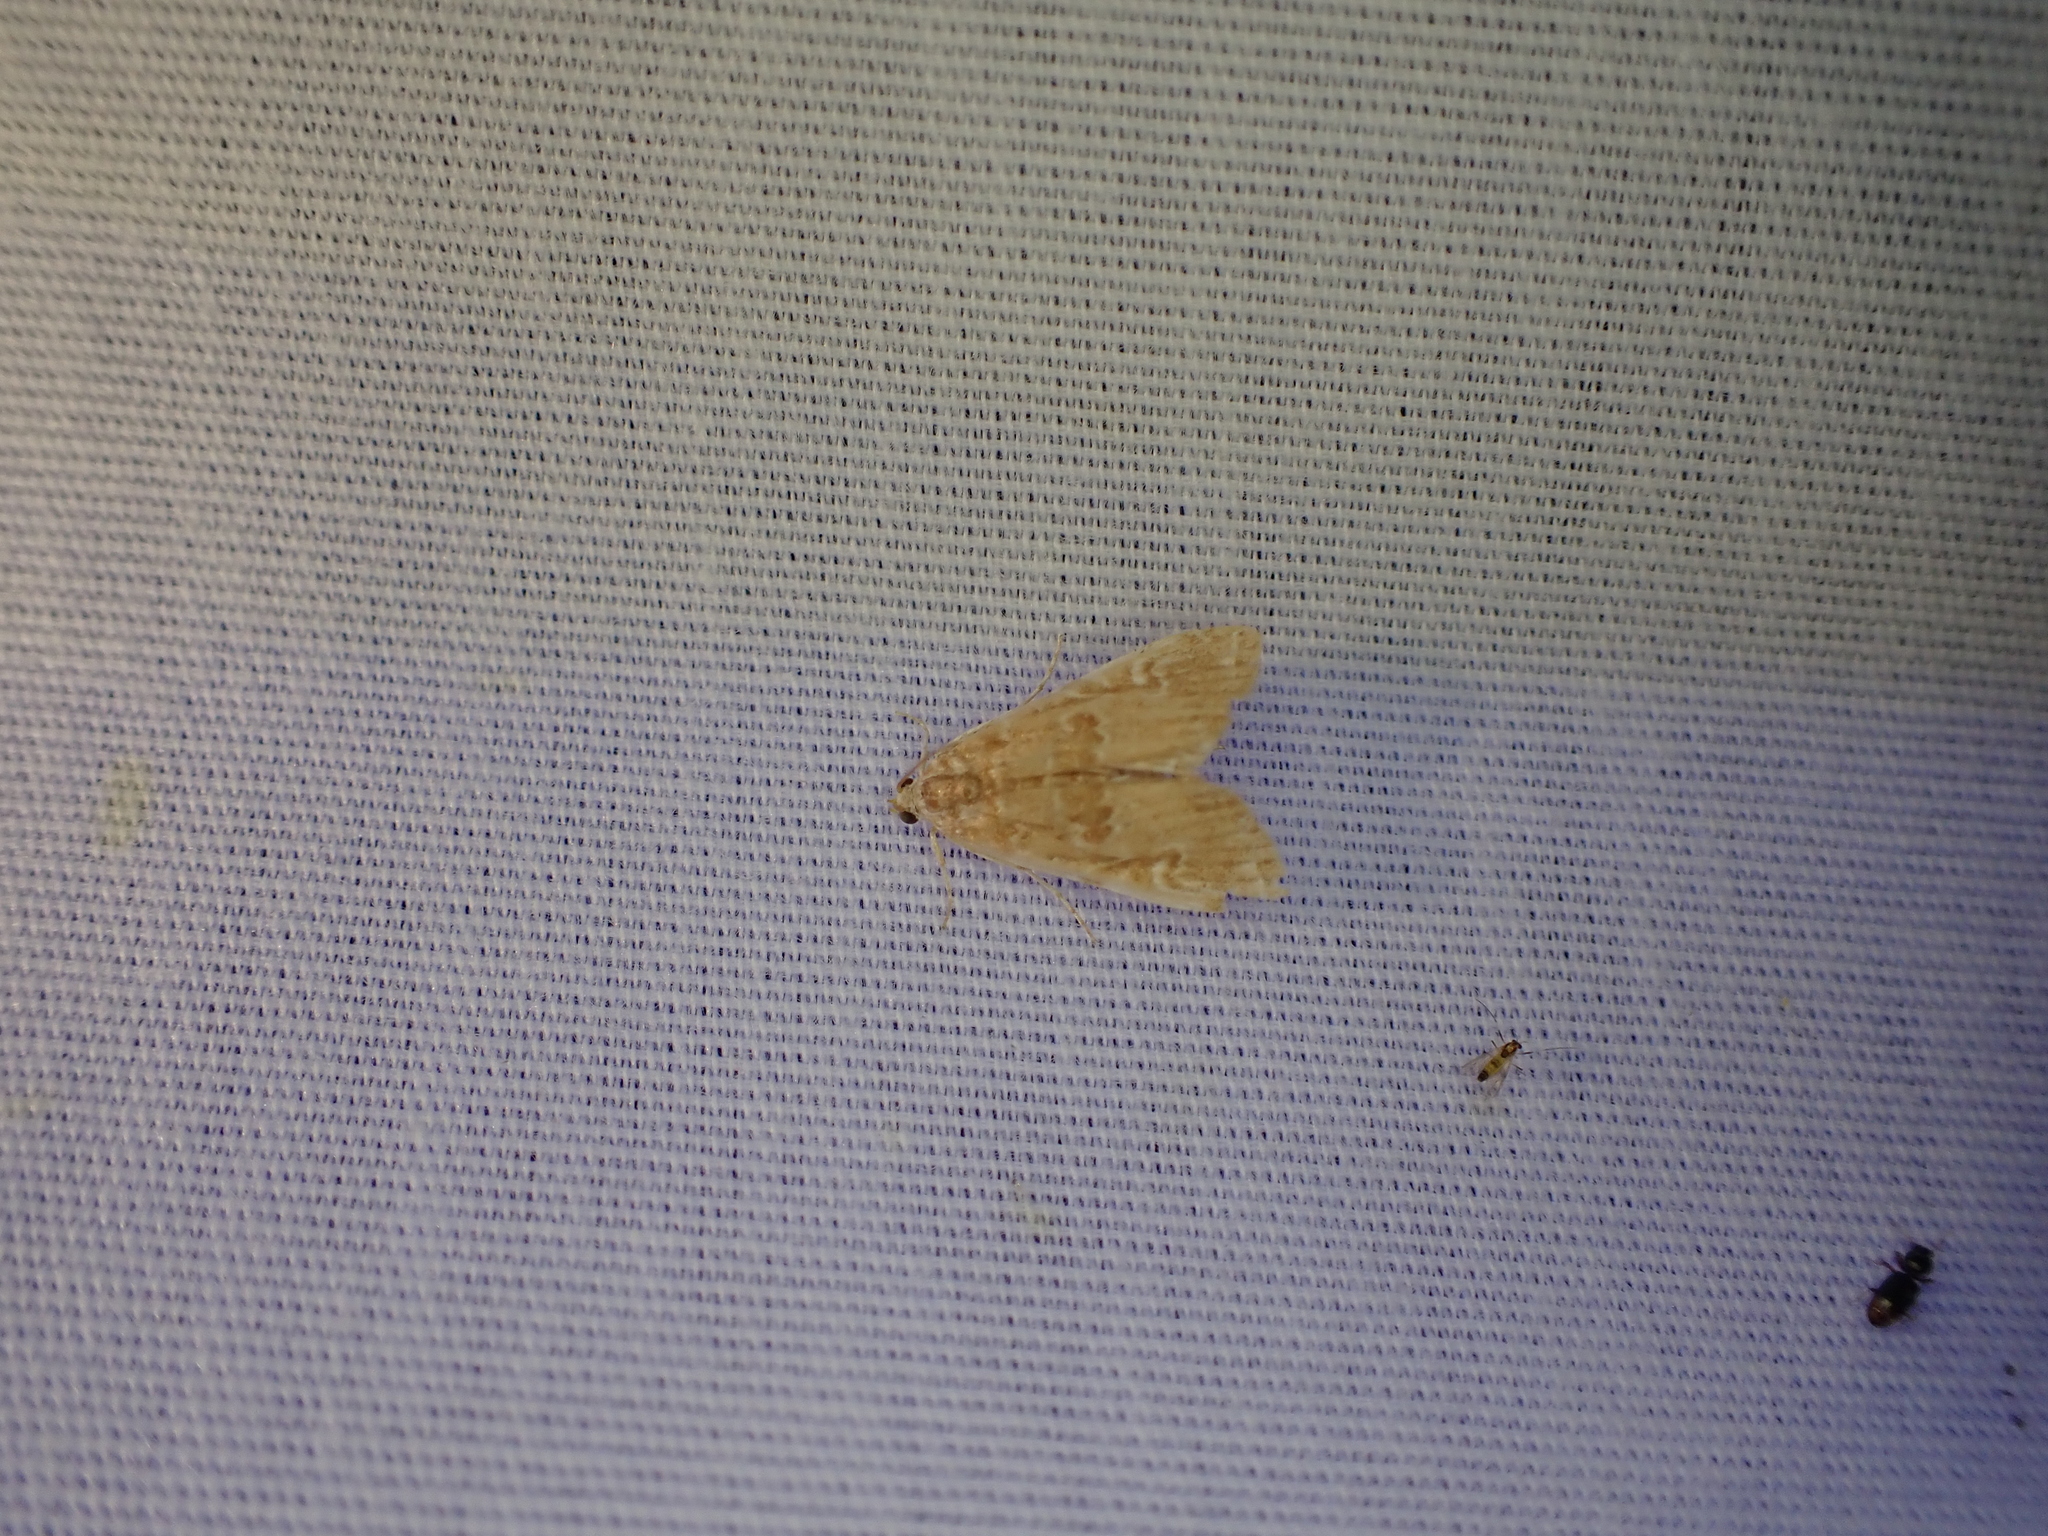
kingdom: Animalia
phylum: Arthropoda
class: Insecta
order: Lepidoptera
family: Crambidae
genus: Elophila
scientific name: Elophila gyralis
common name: Waterlily borer moth
